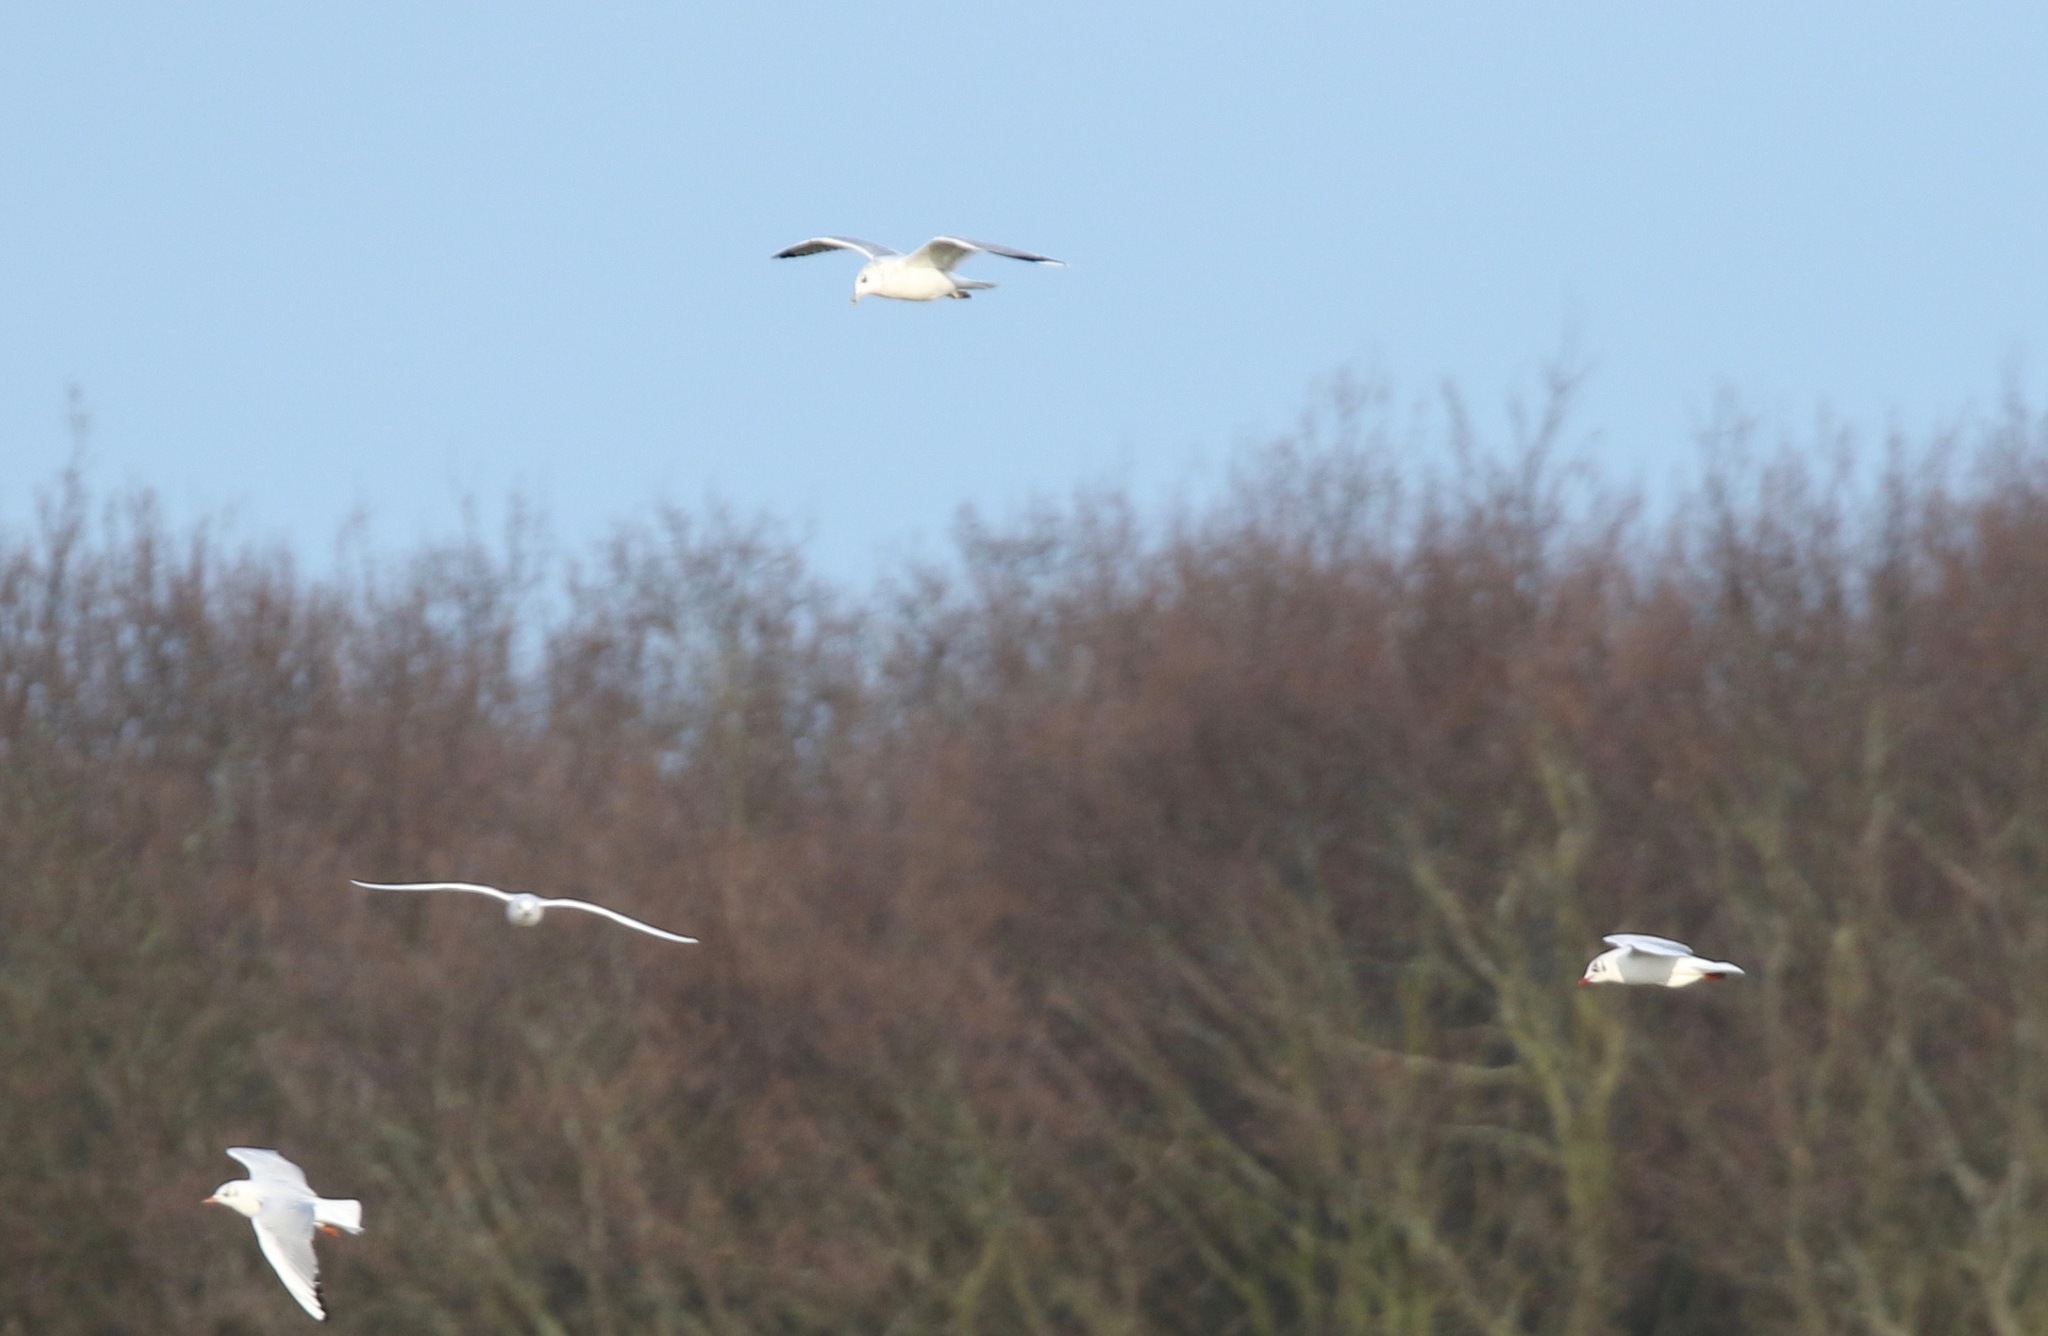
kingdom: Animalia
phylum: Chordata
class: Aves
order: Charadriiformes
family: Laridae
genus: Chroicocephalus
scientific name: Chroicocephalus ridibundus
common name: Black-headed gull
